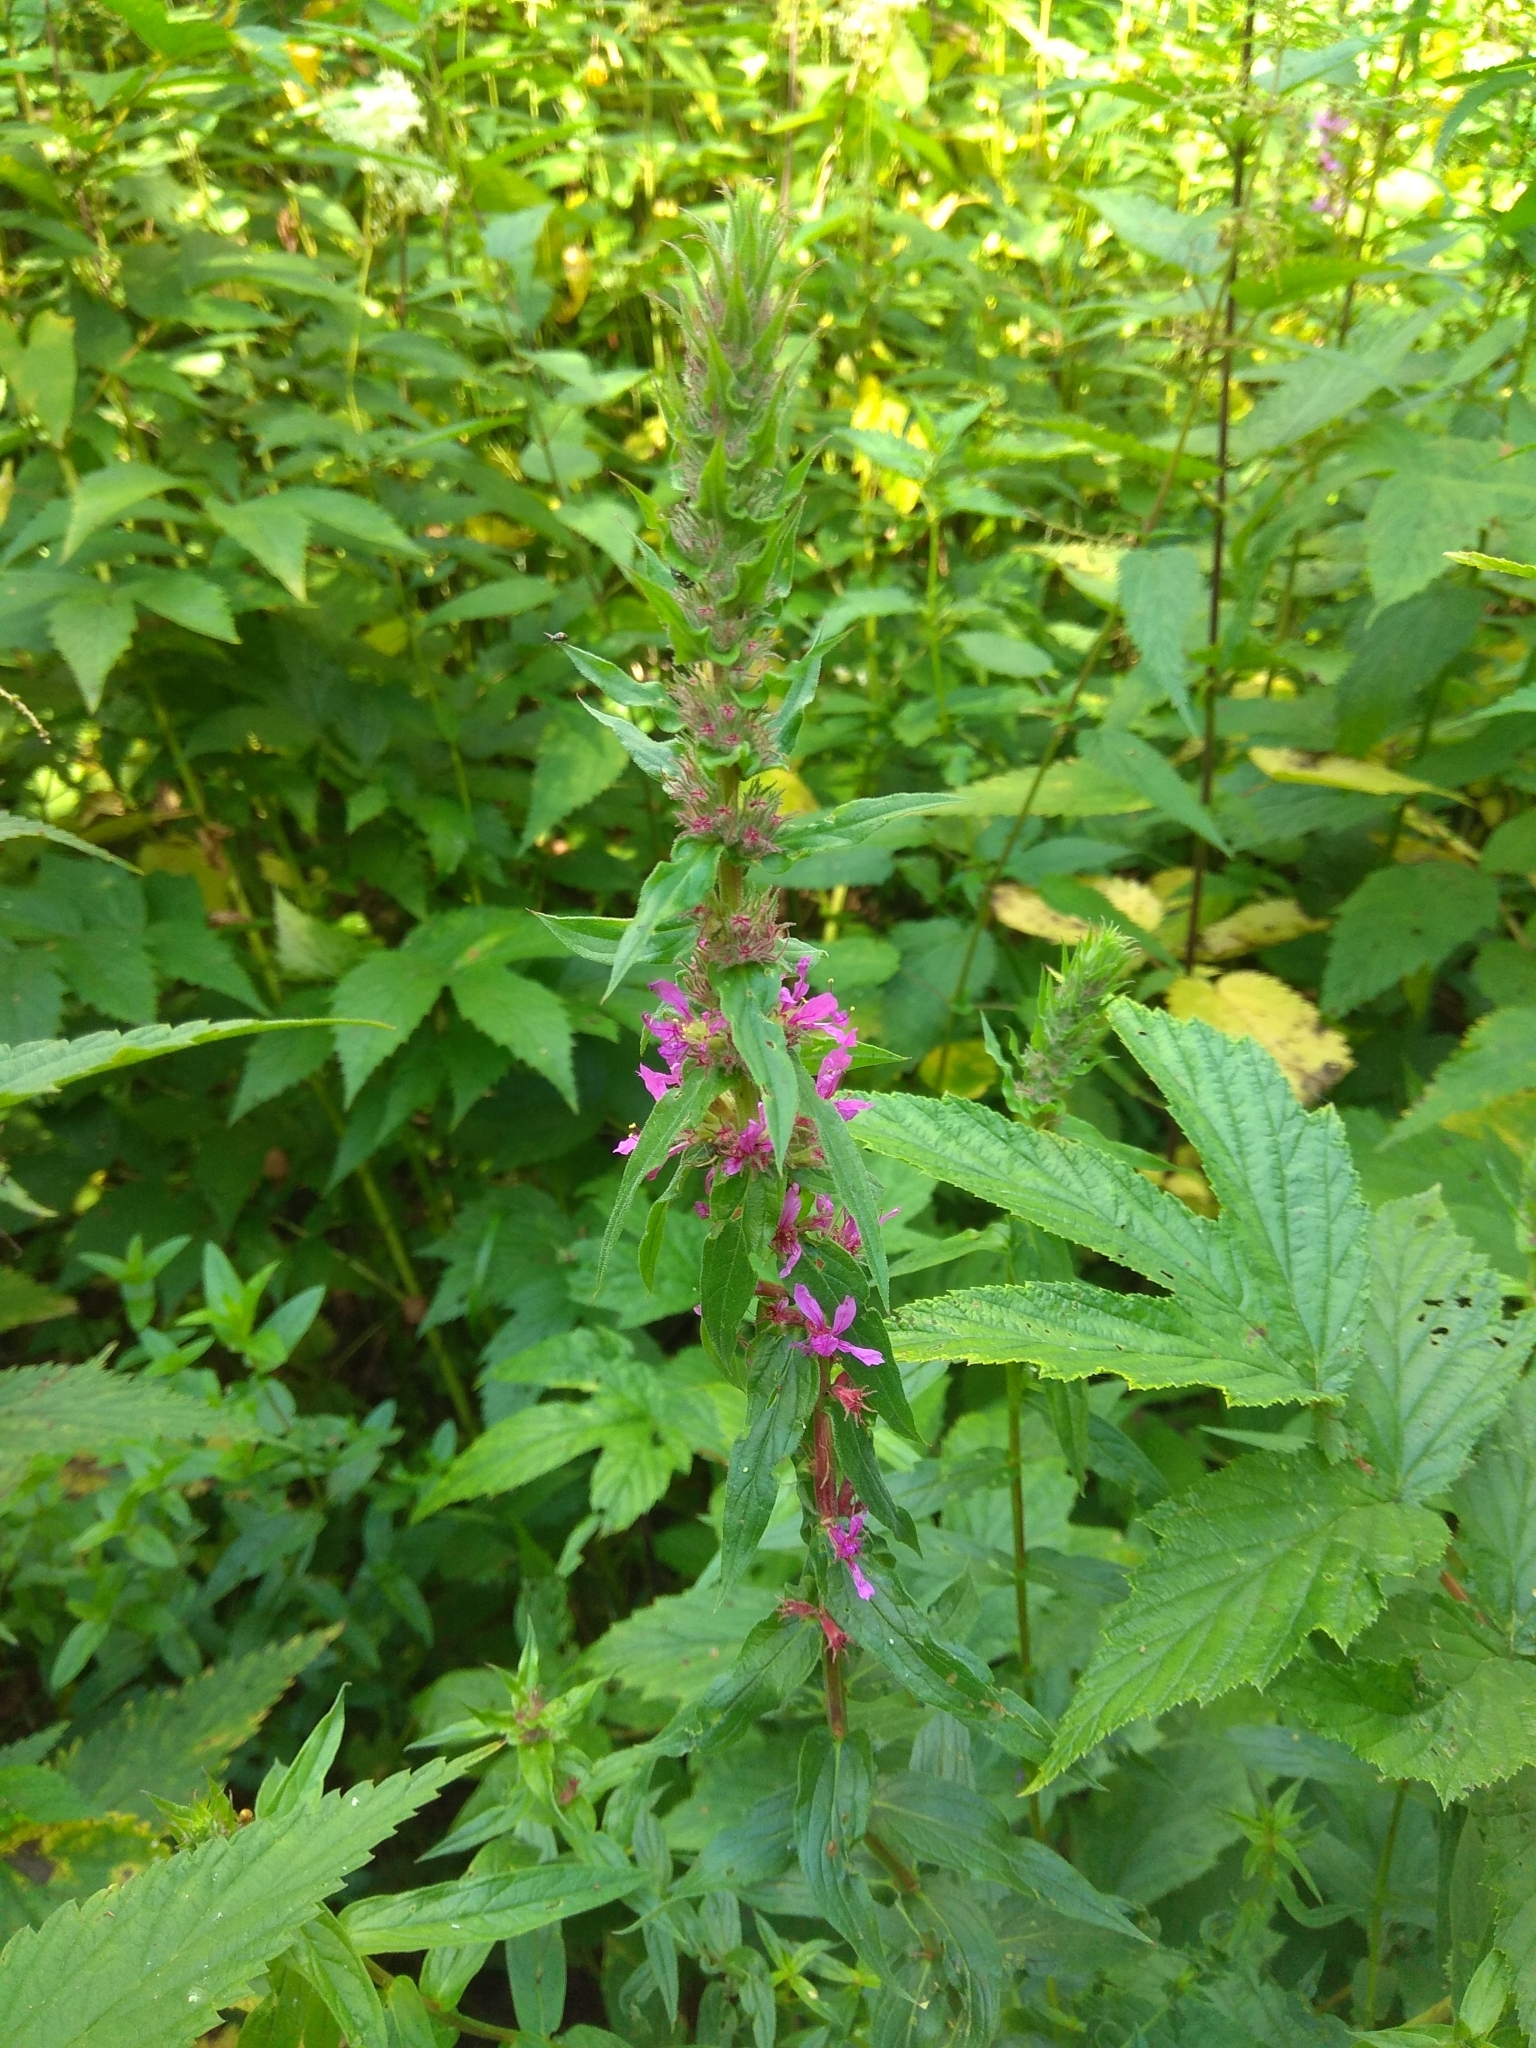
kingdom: Plantae
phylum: Tracheophyta
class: Magnoliopsida
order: Myrtales
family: Lythraceae
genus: Lythrum
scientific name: Lythrum salicaria
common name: Purple loosestrife
